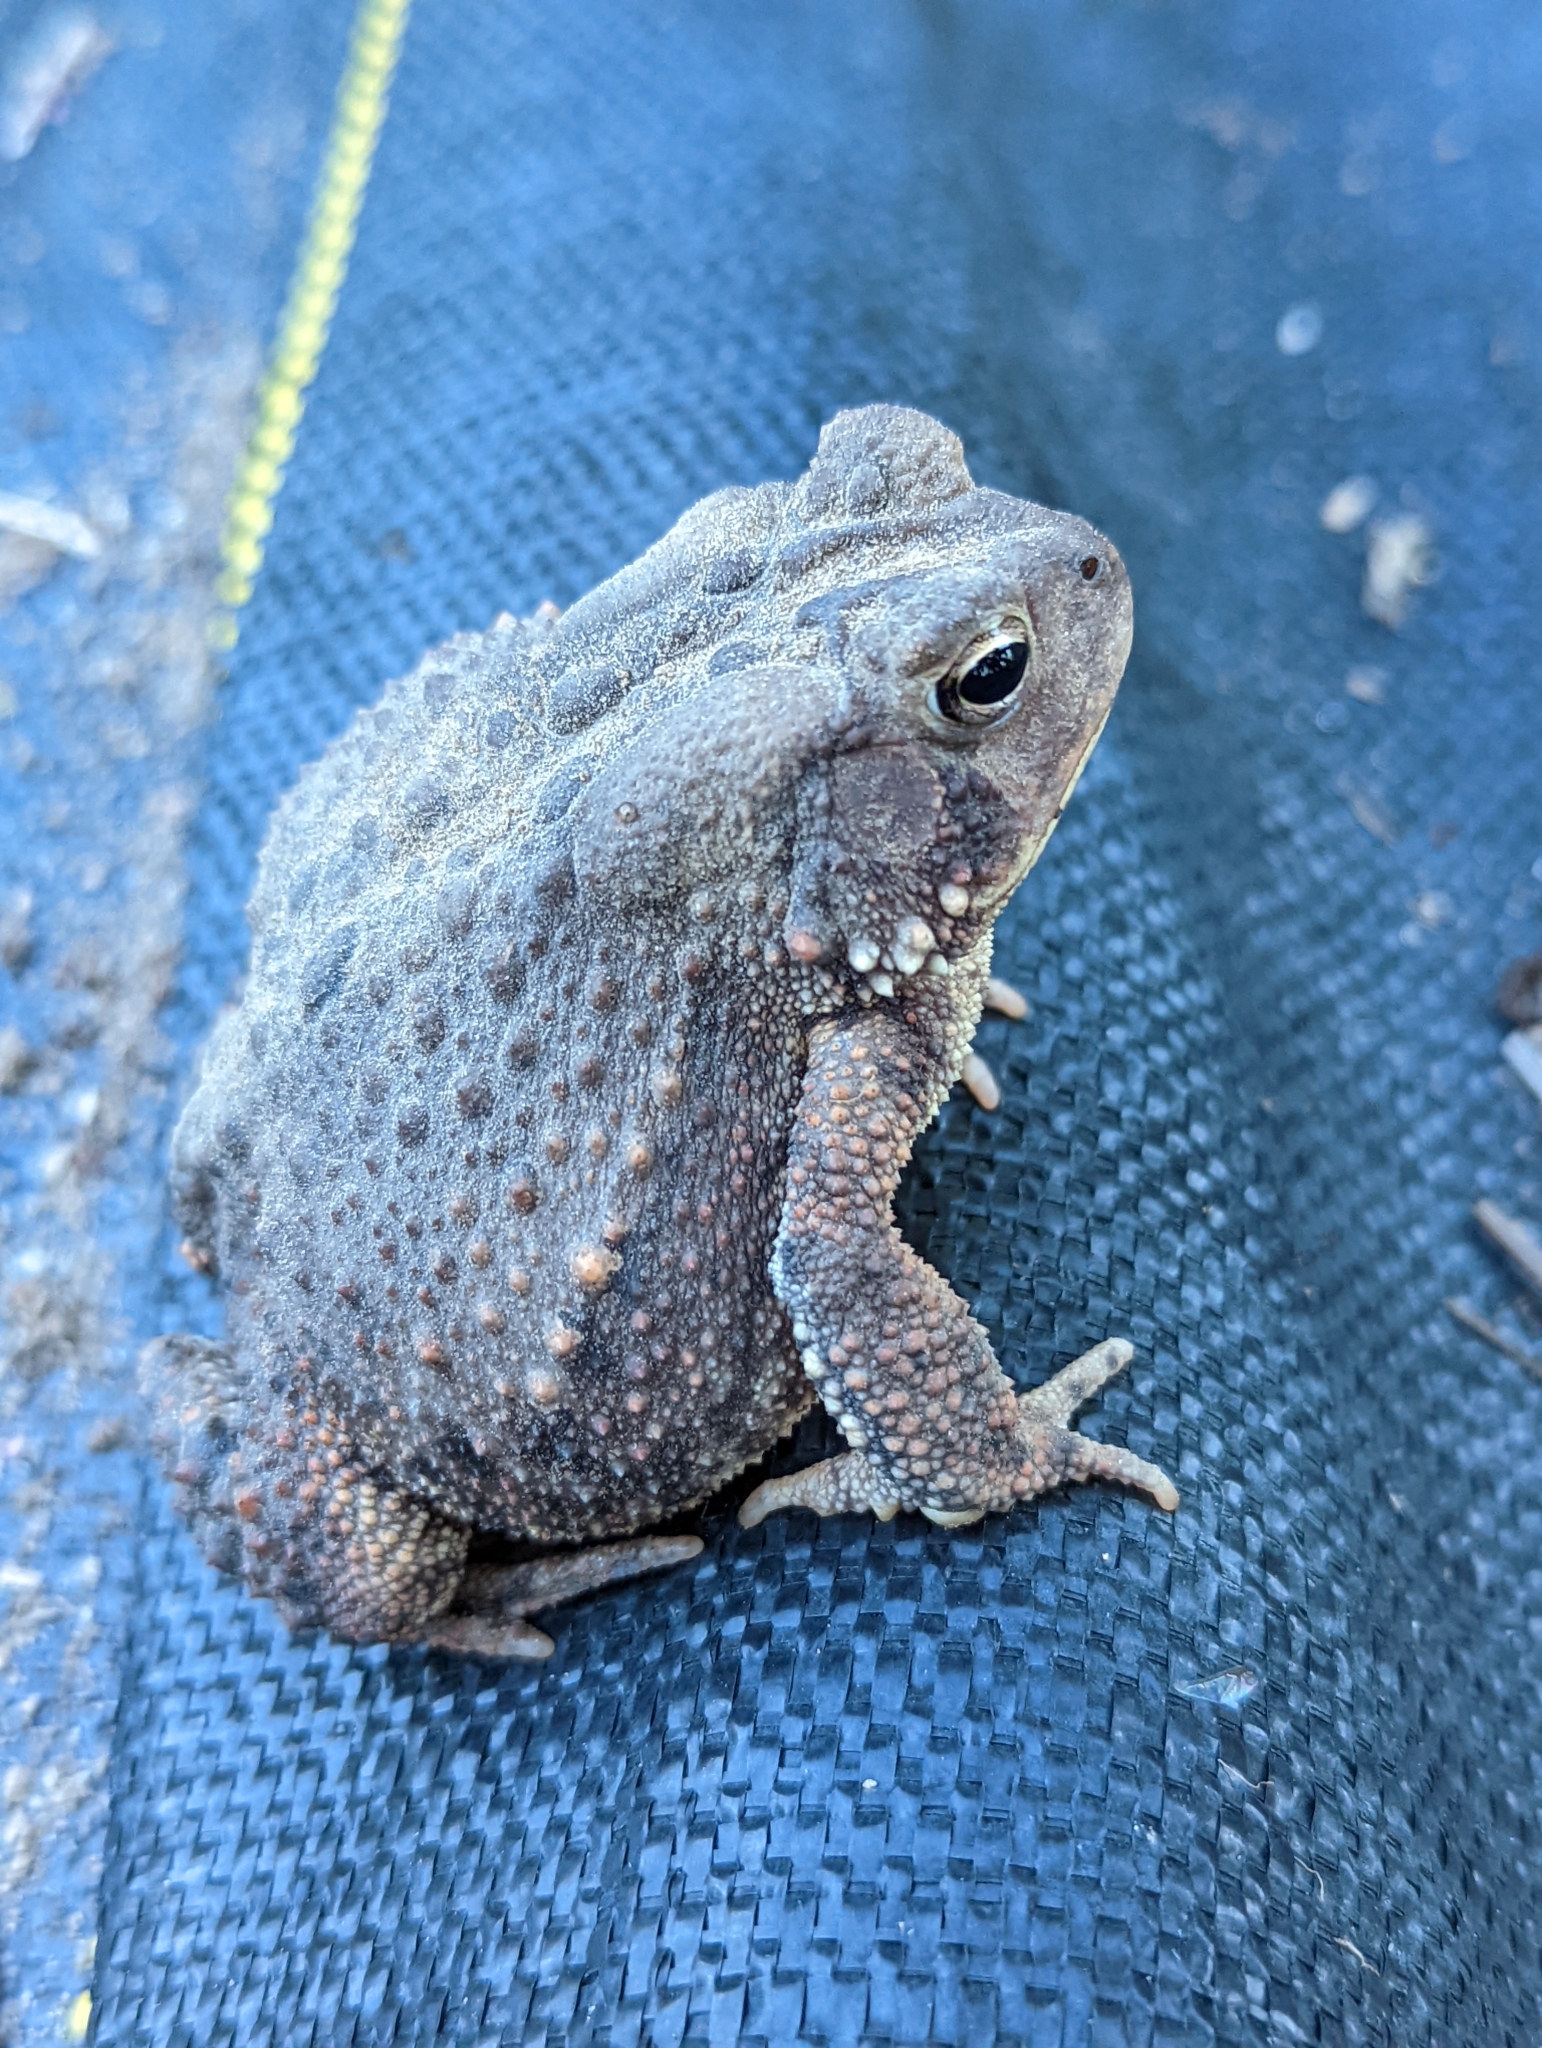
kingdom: Animalia
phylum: Chordata
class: Amphibia
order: Anura
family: Bufonidae
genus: Anaxyrus
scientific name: Anaxyrus americanus
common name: American toad
